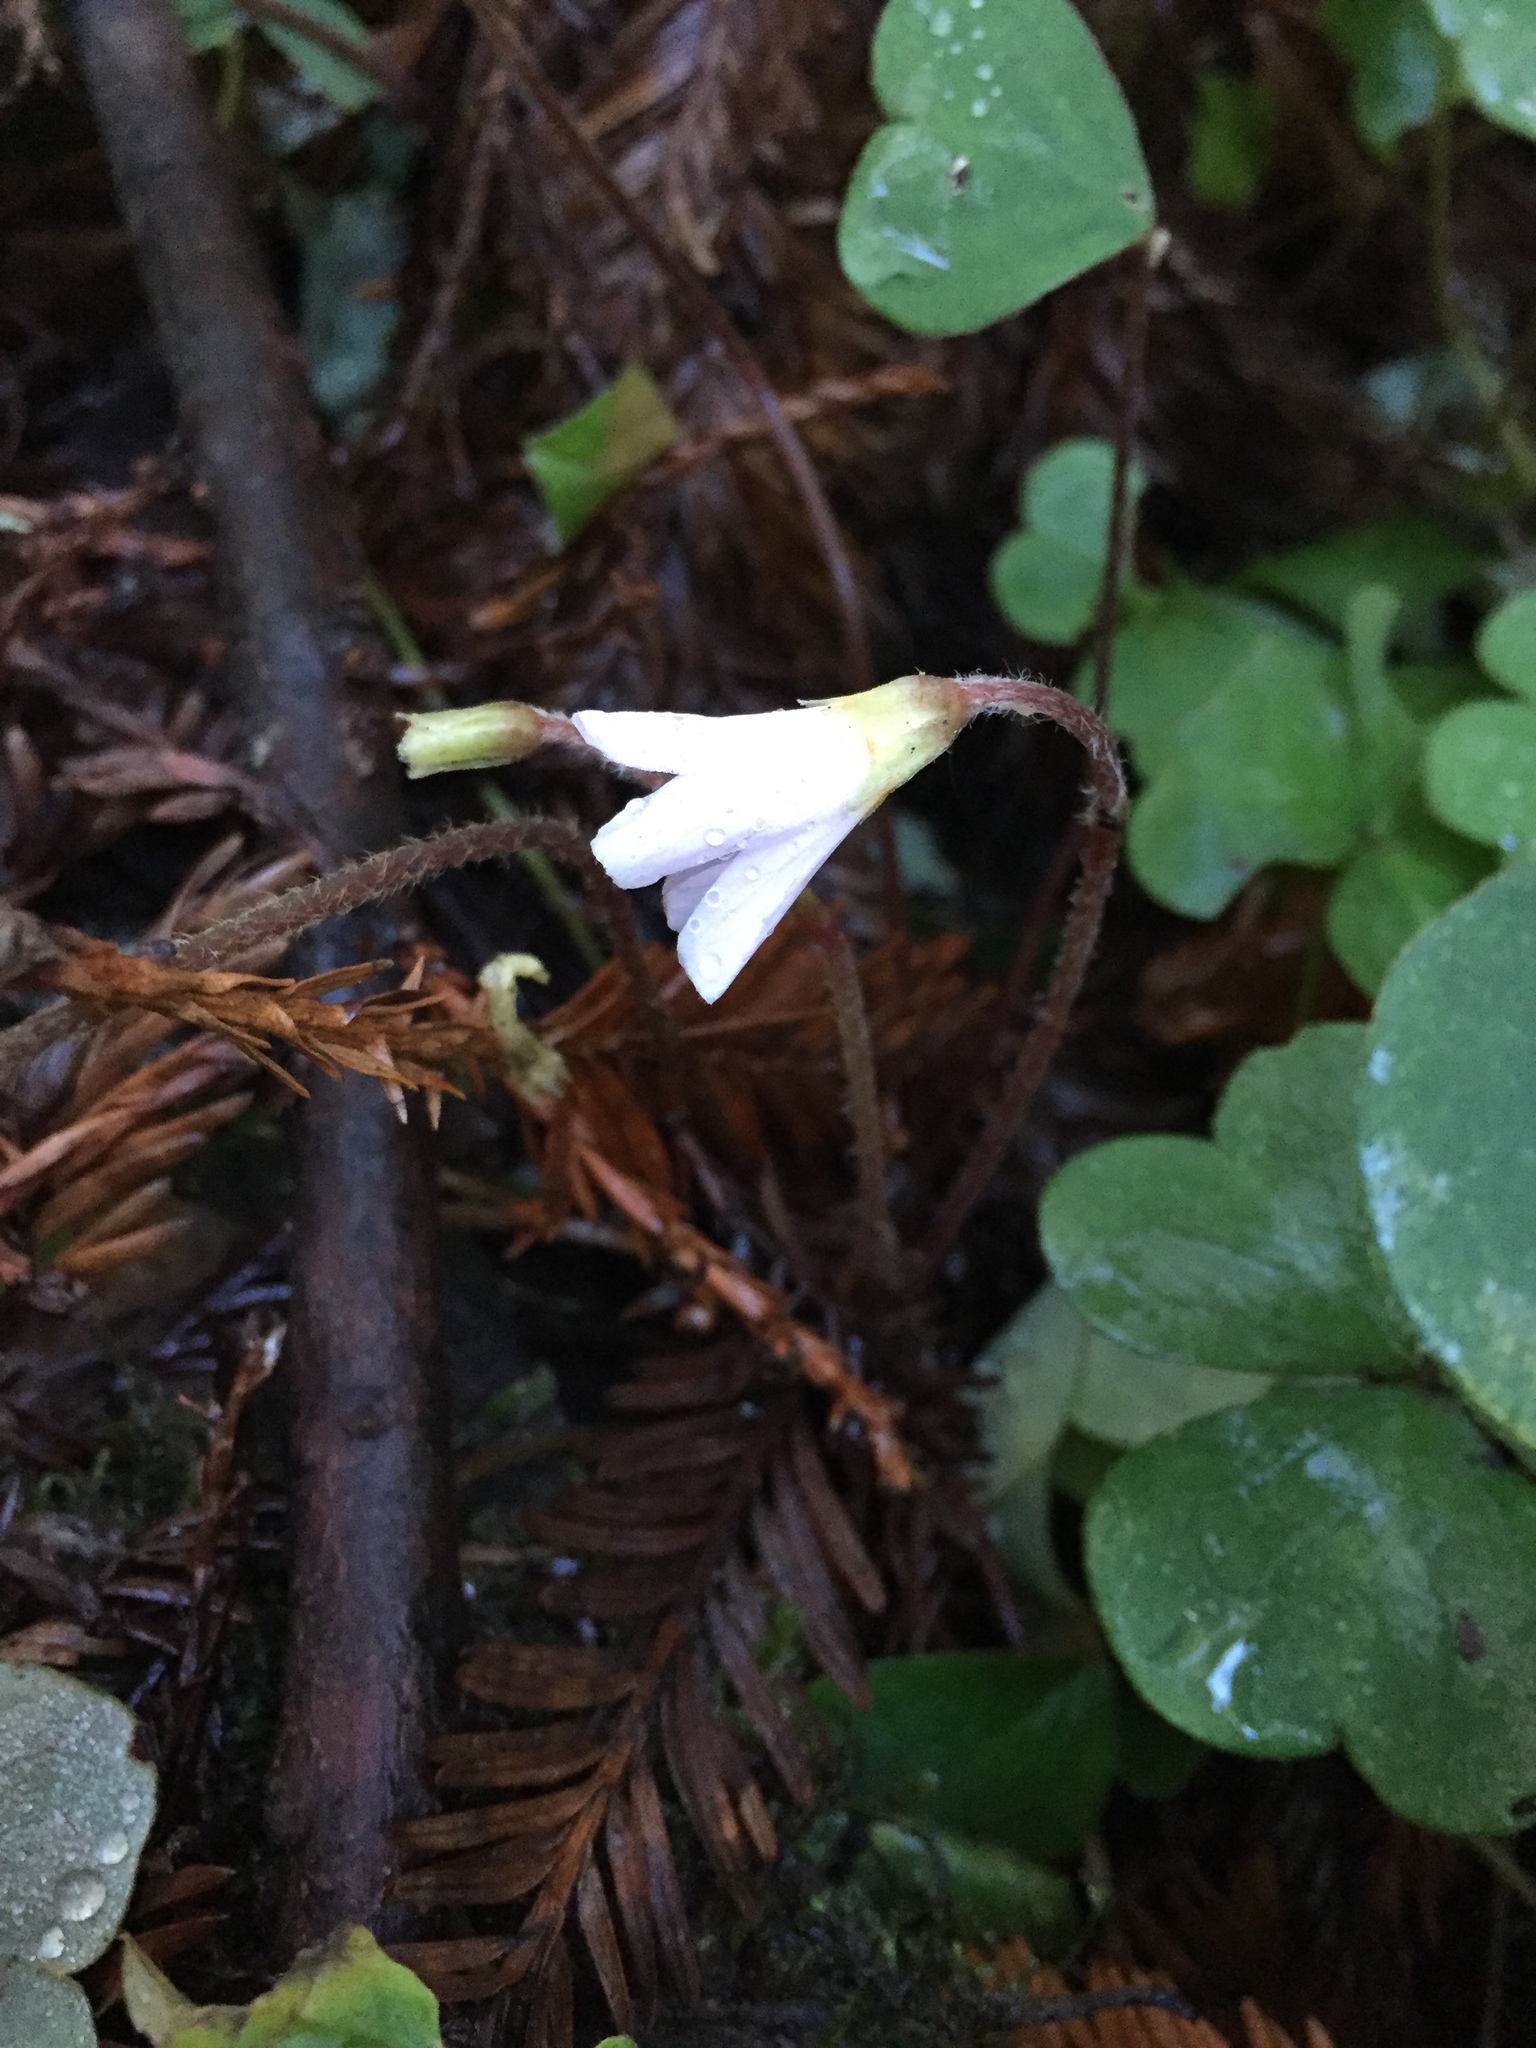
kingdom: Plantae
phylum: Tracheophyta
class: Magnoliopsida
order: Oxalidales
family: Oxalidaceae
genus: Oxalis
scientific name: Oxalis oregana
